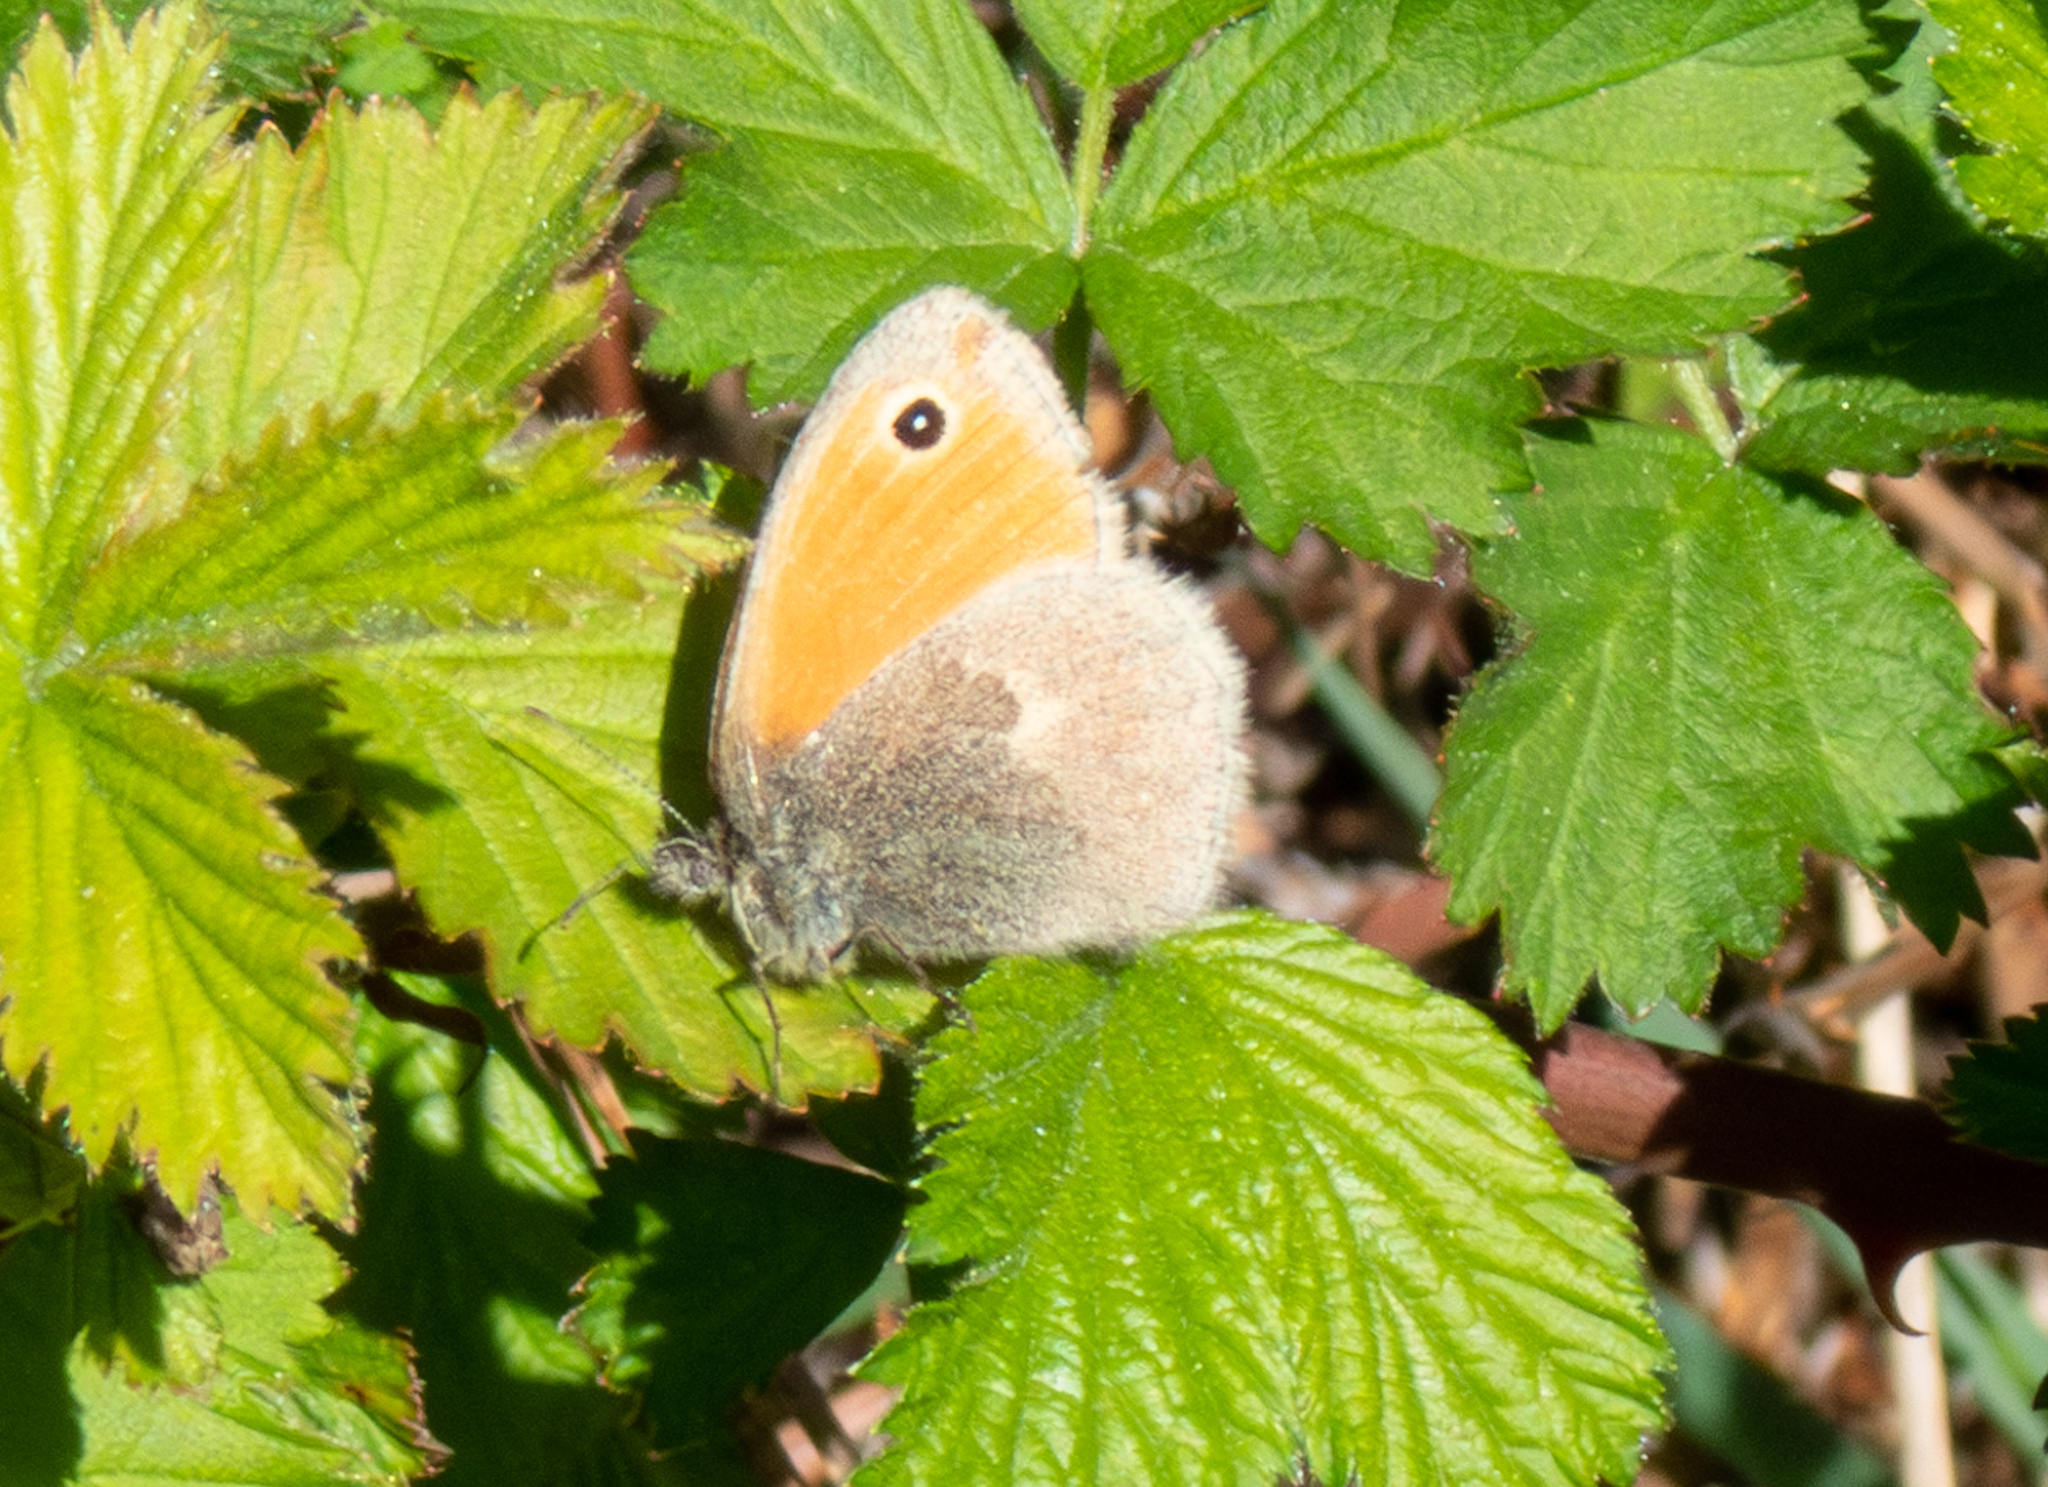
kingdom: Animalia
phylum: Arthropoda
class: Insecta
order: Lepidoptera
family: Nymphalidae
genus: Coenonympha
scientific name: Coenonympha pamphilus
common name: Small heath
